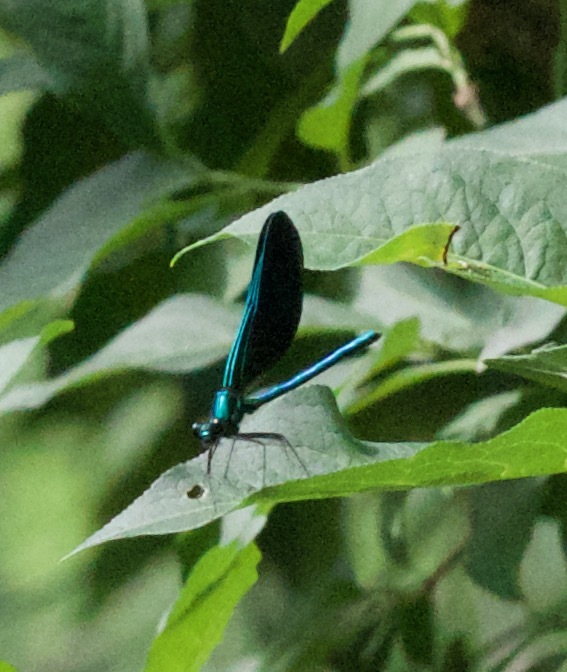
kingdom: Animalia
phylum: Arthropoda
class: Insecta
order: Odonata
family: Calopterygidae
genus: Calopteryx
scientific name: Calopteryx maculata
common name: Ebony jewelwing
